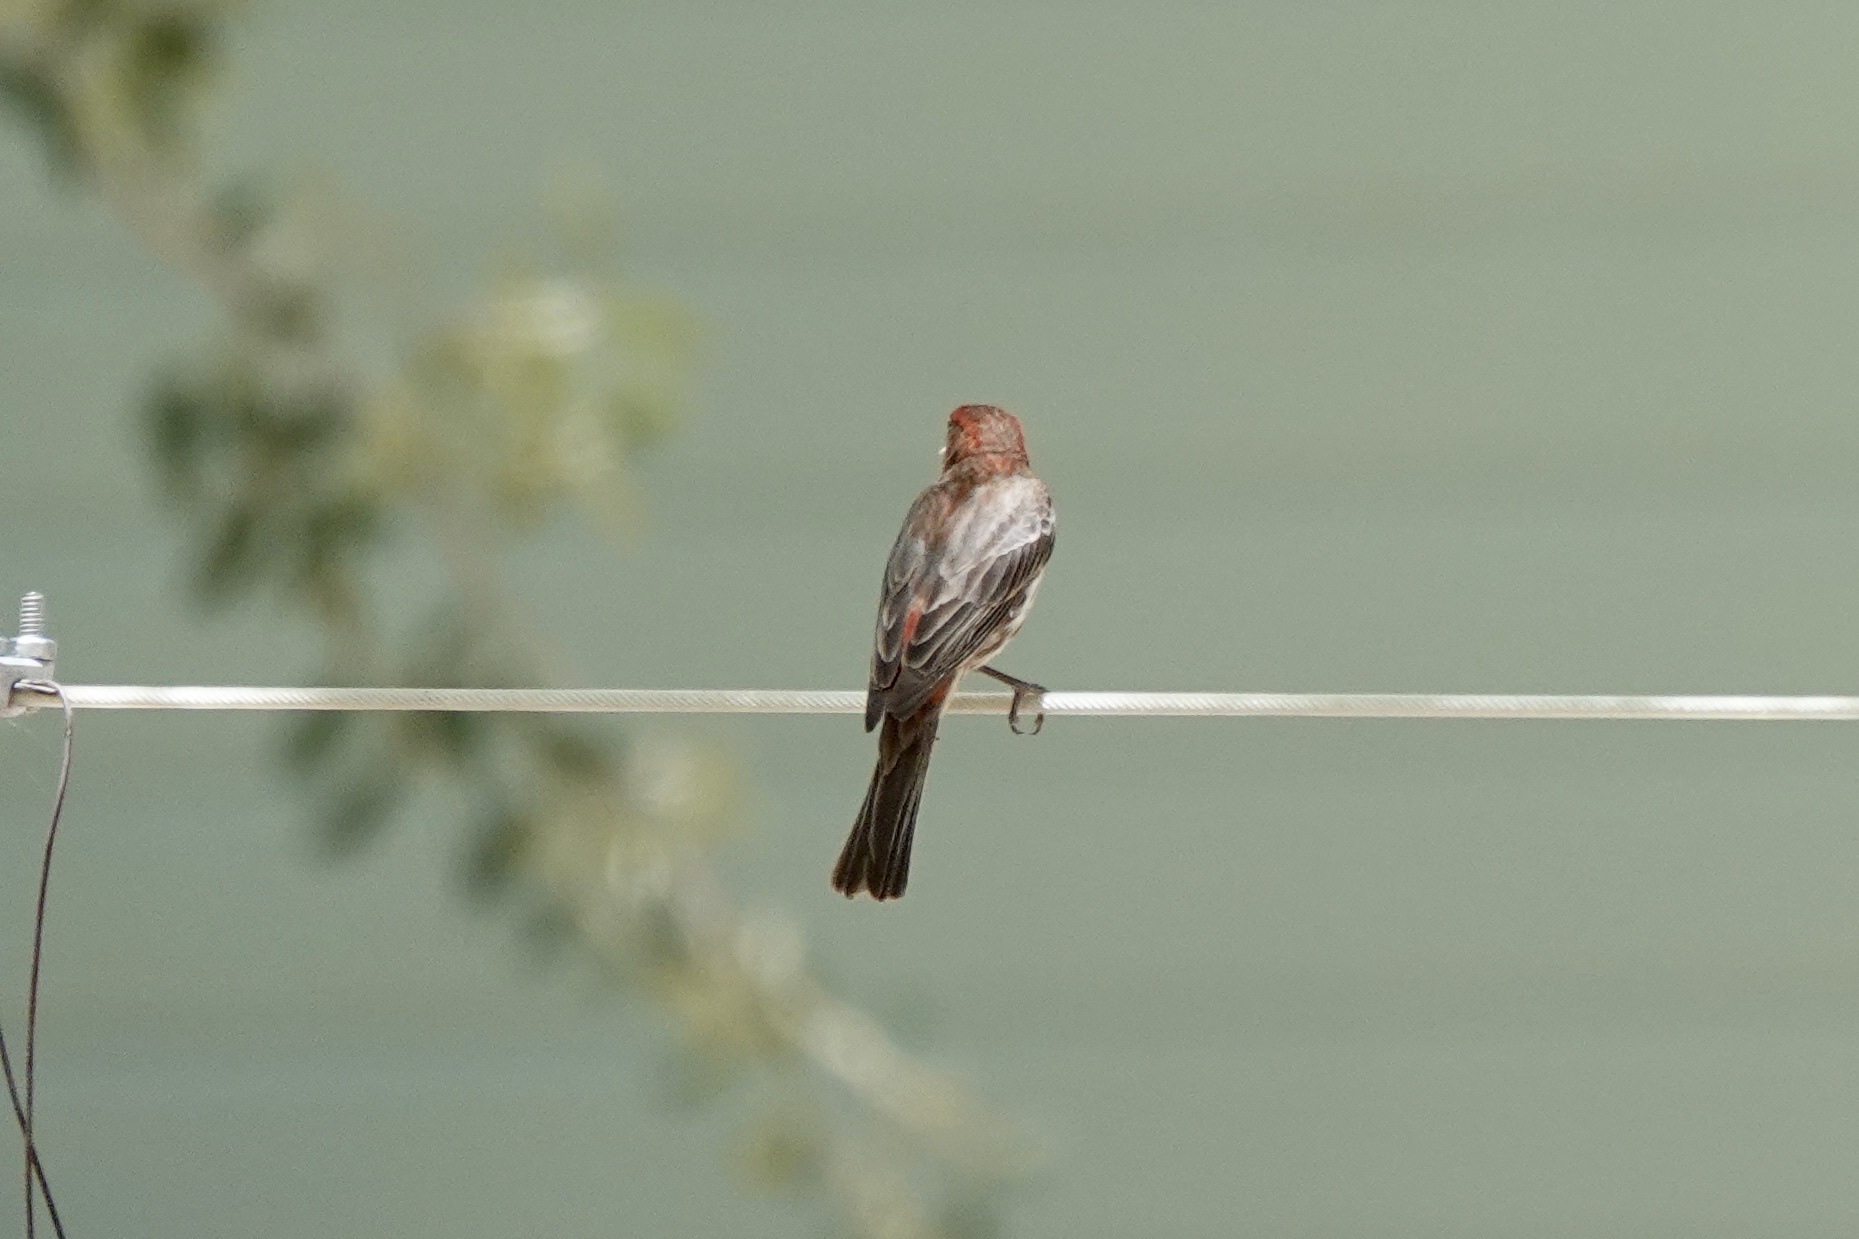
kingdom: Animalia
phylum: Chordata
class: Aves
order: Passeriformes
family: Fringillidae
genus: Haemorhous
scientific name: Haemorhous mexicanus
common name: House finch
